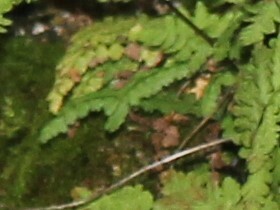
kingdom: Plantae
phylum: Tracheophyta
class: Polypodiopsida
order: Polypodiales
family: Aspleniaceae
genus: Asplenium
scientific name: Asplenium viride
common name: Green spleenwort
